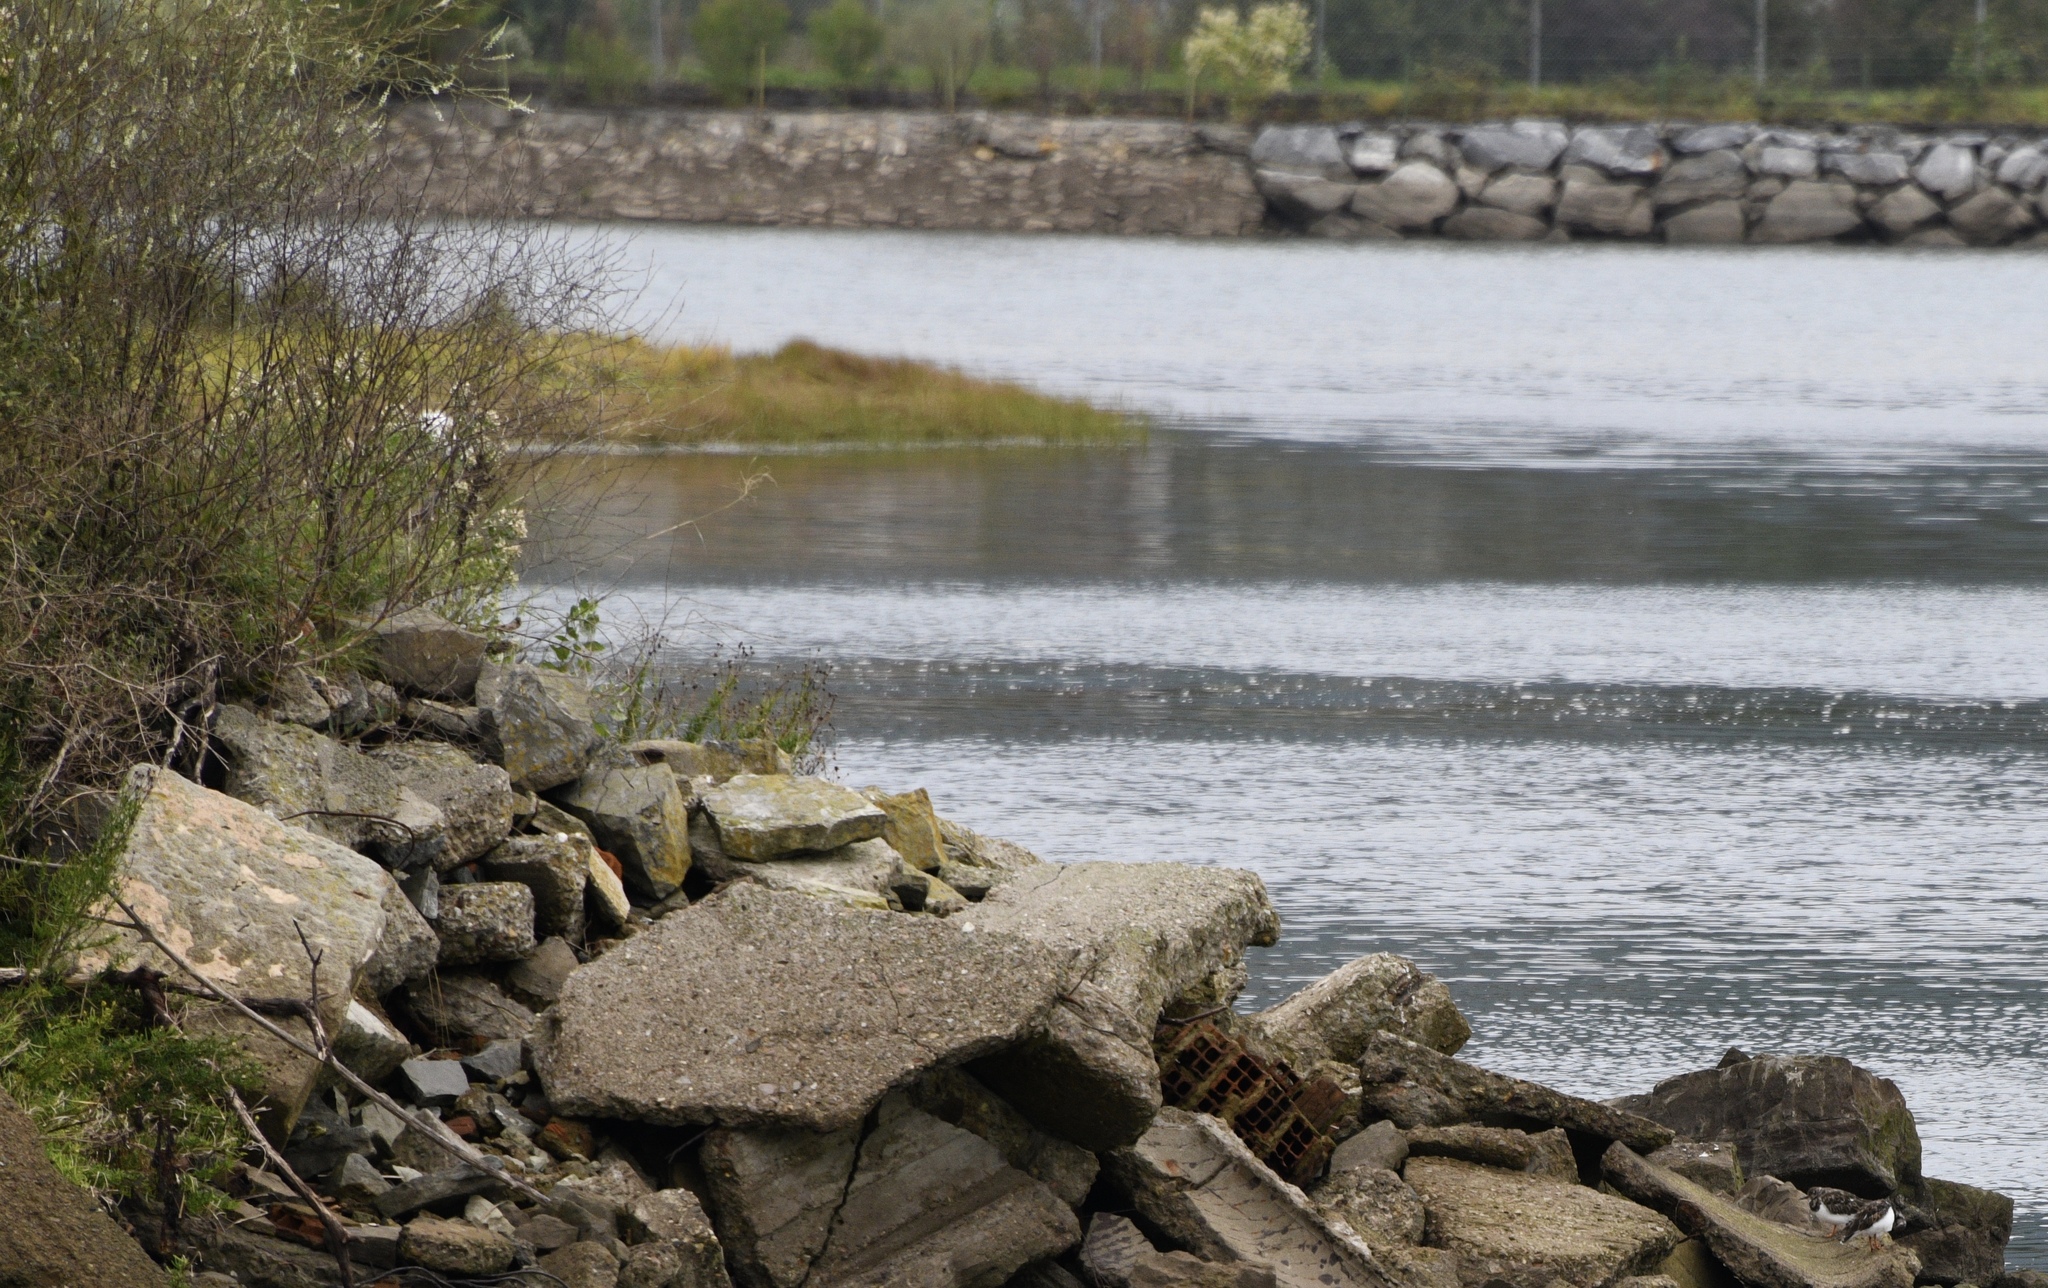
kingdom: Animalia
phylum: Chordata
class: Aves
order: Charadriiformes
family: Scolopacidae
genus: Arenaria
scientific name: Arenaria interpres
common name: Ruddy turnstone
